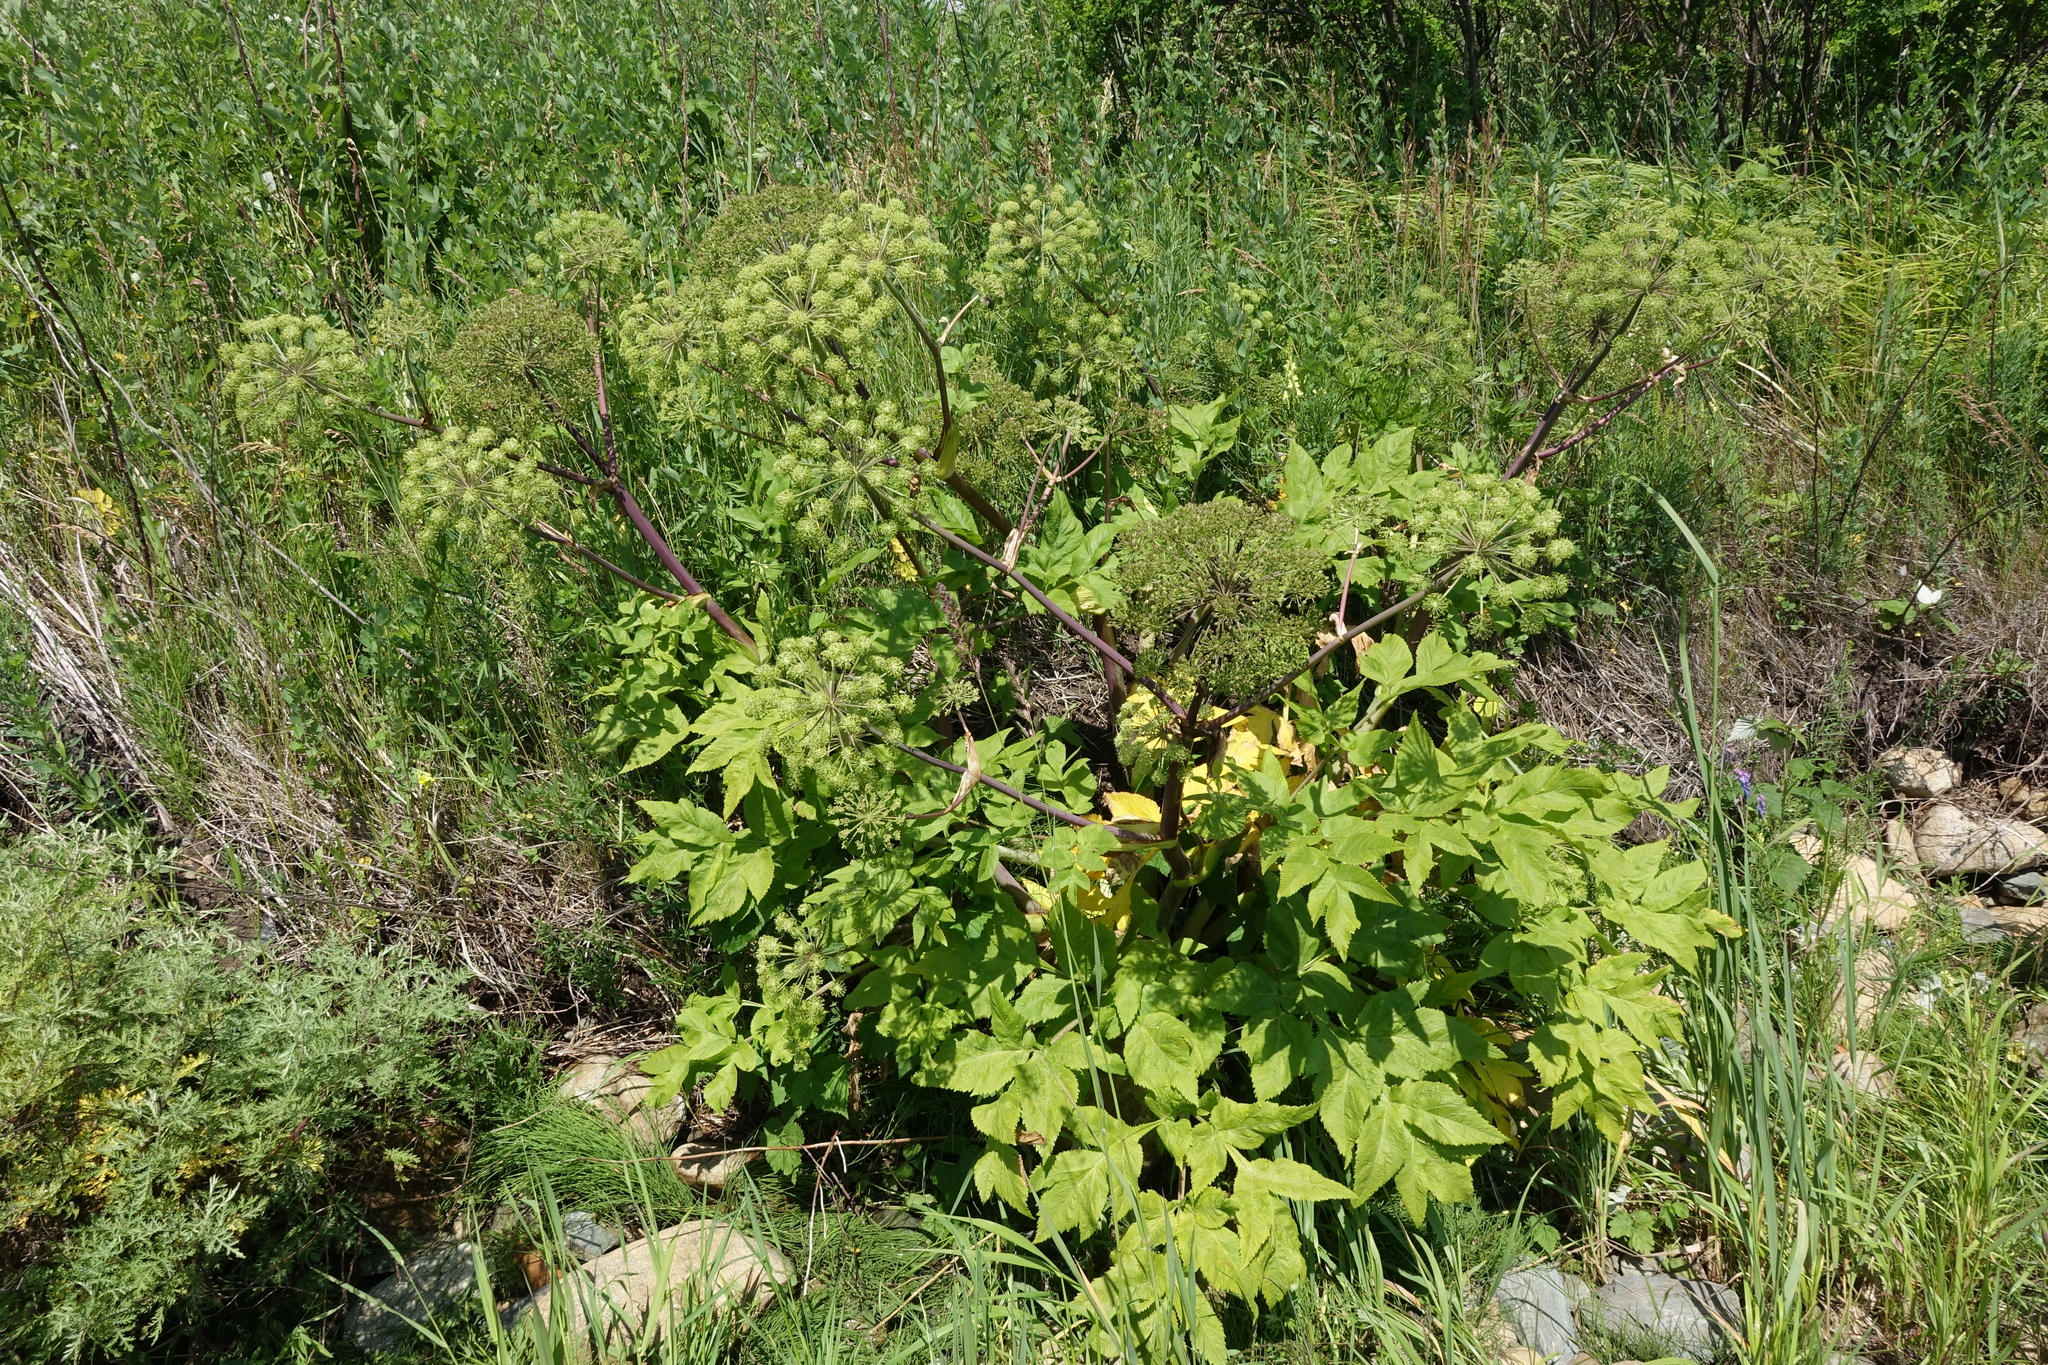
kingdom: Plantae
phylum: Tracheophyta
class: Magnoliopsida
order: Apiales
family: Apiaceae
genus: Angelica
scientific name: Angelica decurrens
